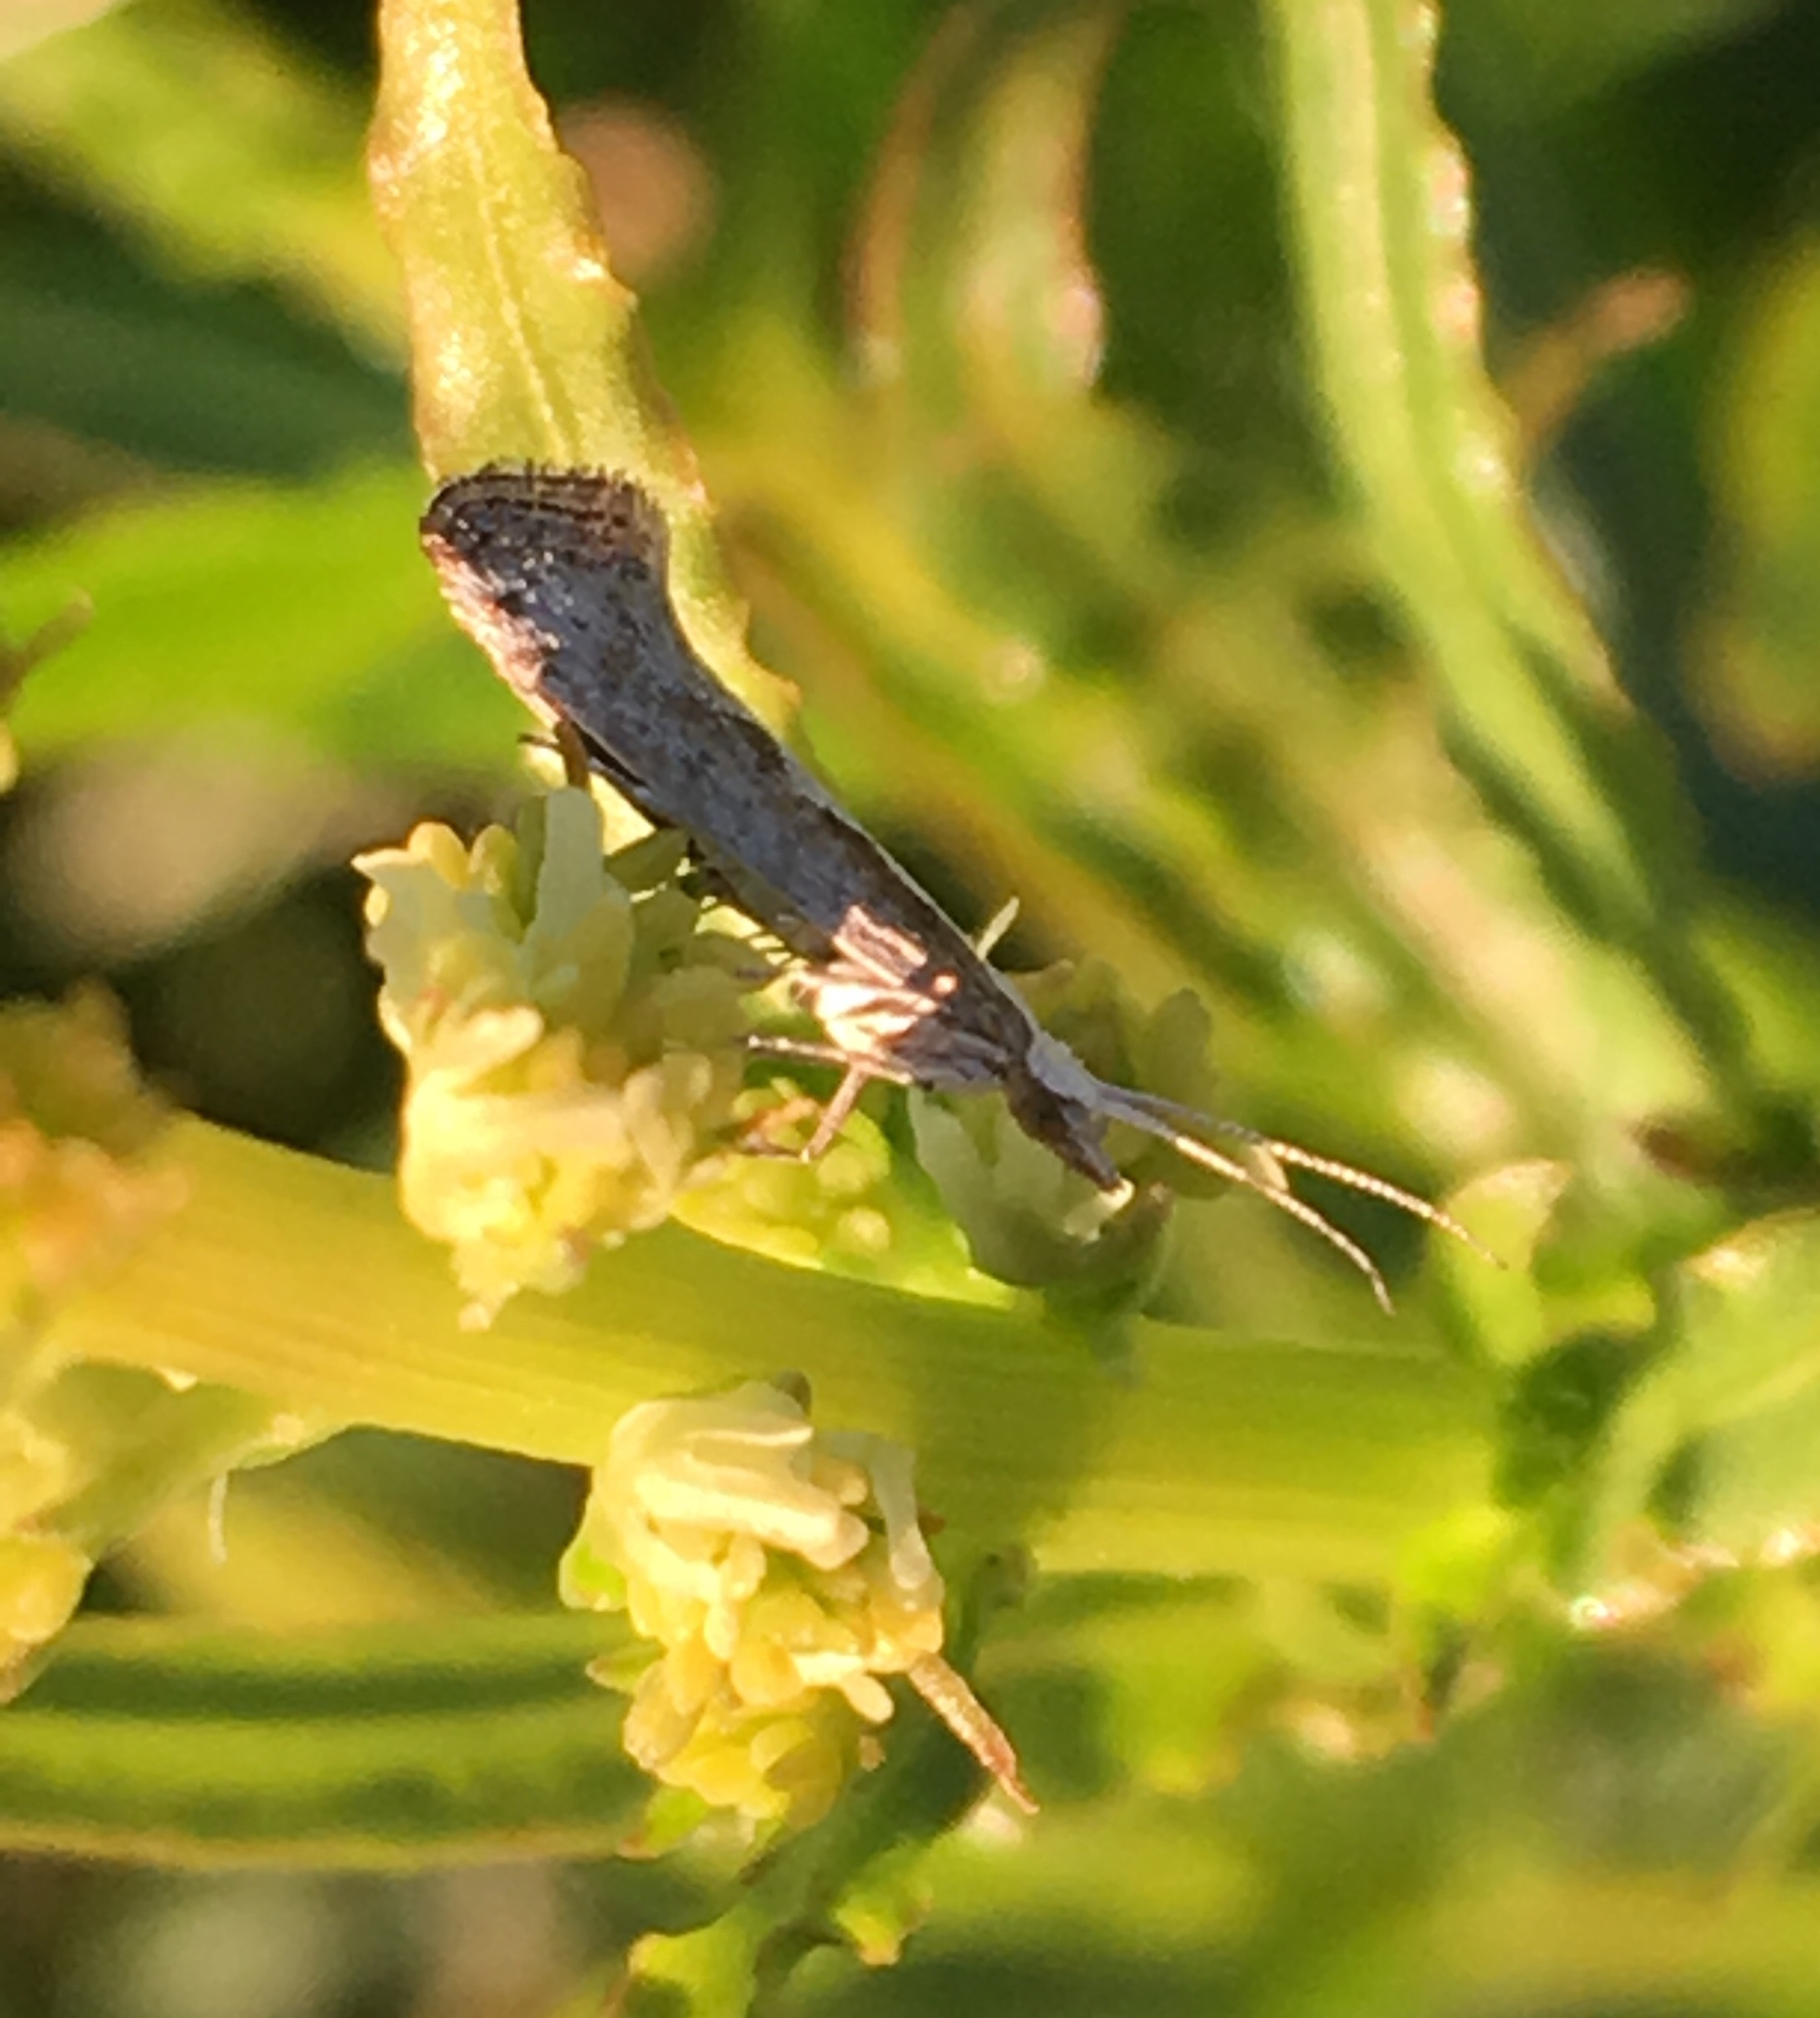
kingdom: Animalia
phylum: Arthropoda
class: Insecta
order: Lepidoptera
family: Plutellidae
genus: Plutella
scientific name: Plutella xylostella
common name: Diamond-back moth
